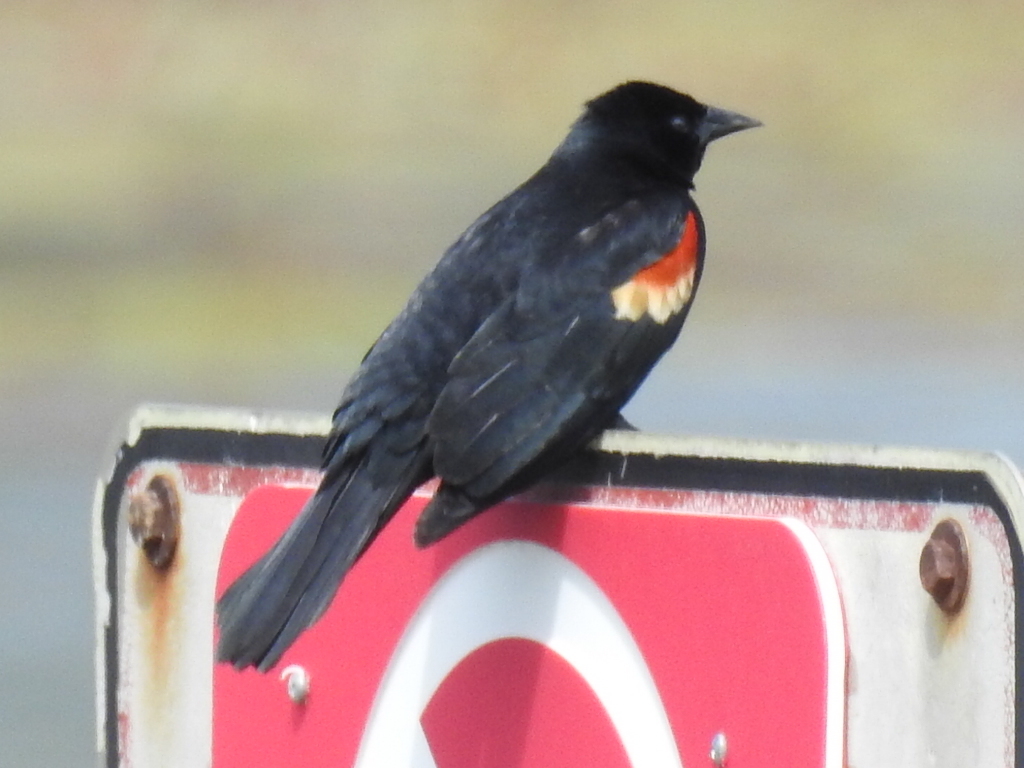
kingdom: Animalia
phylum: Chordata
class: Aves
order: Passeriformes
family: Icteridae
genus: Agelaius
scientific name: Agelaius phoeniceus
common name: Red-winged blackbird
